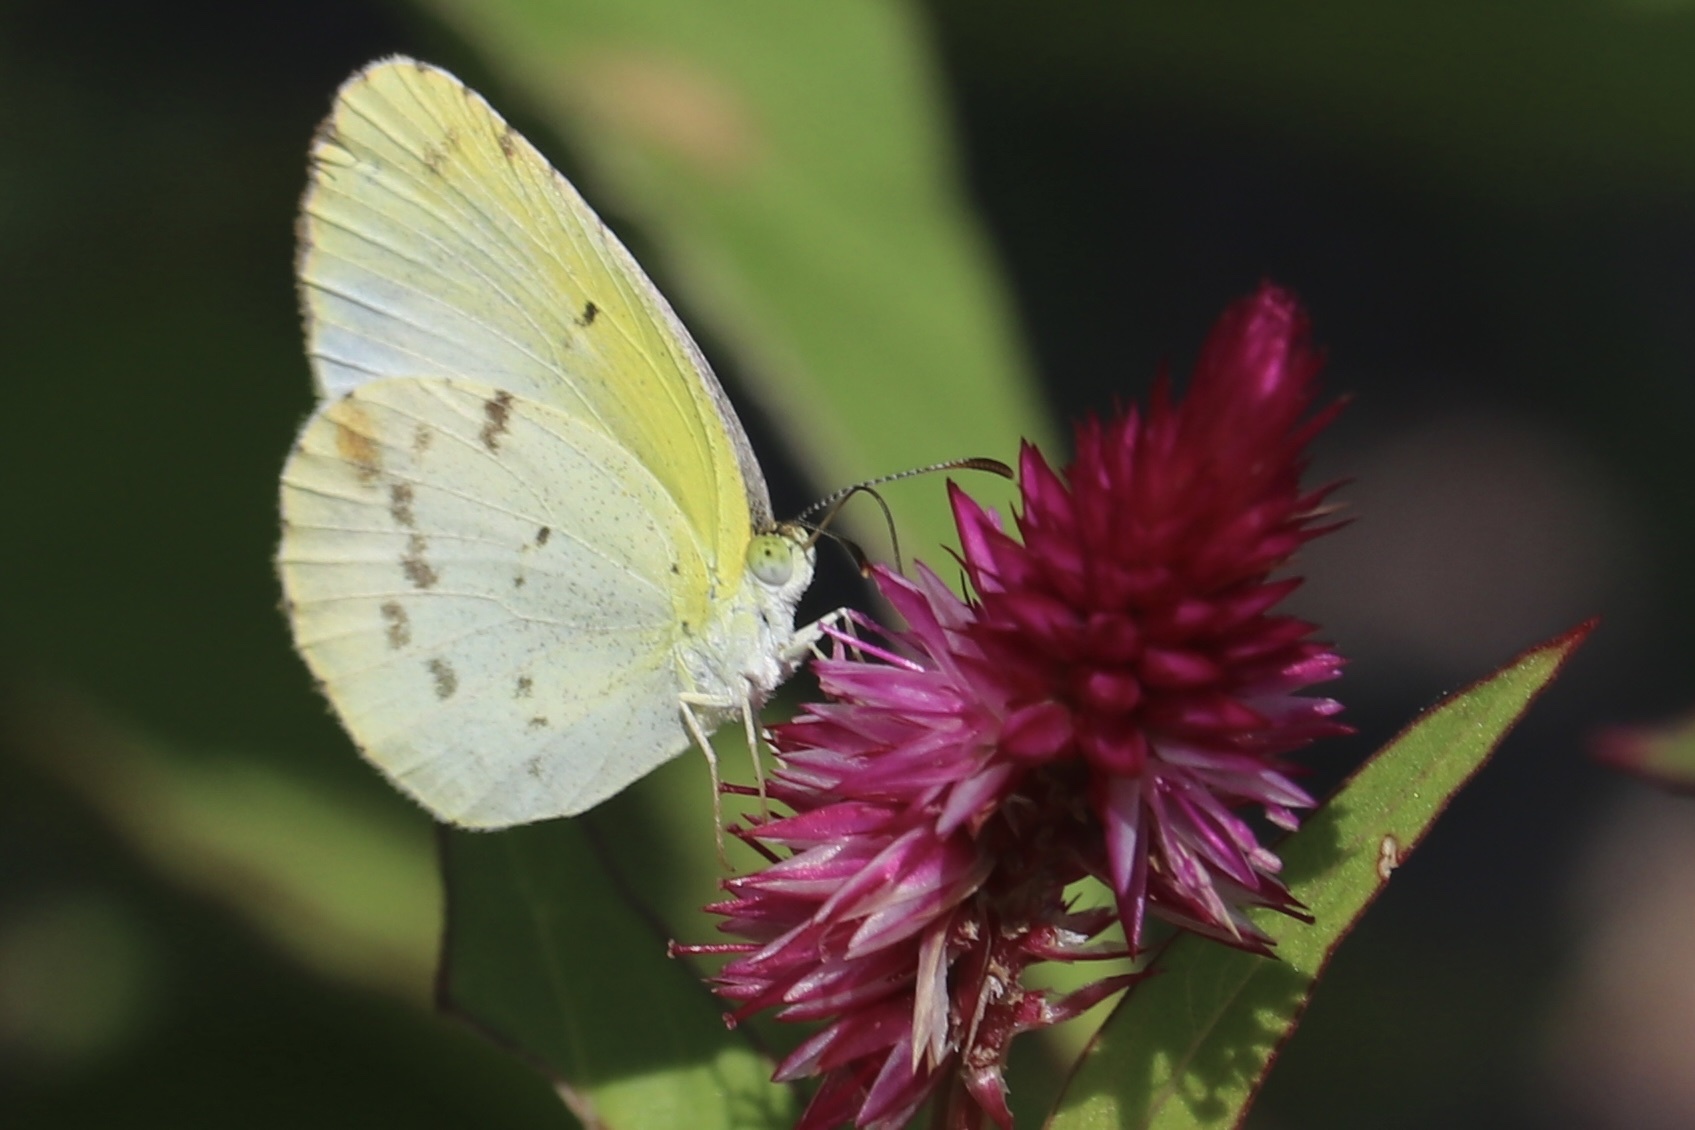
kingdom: Animalia
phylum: Arthropoda
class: Insecta
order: Lepidoptera
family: Pieridae
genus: Pyrisitia
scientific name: Pyrisitia lisa
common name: Little yellow
